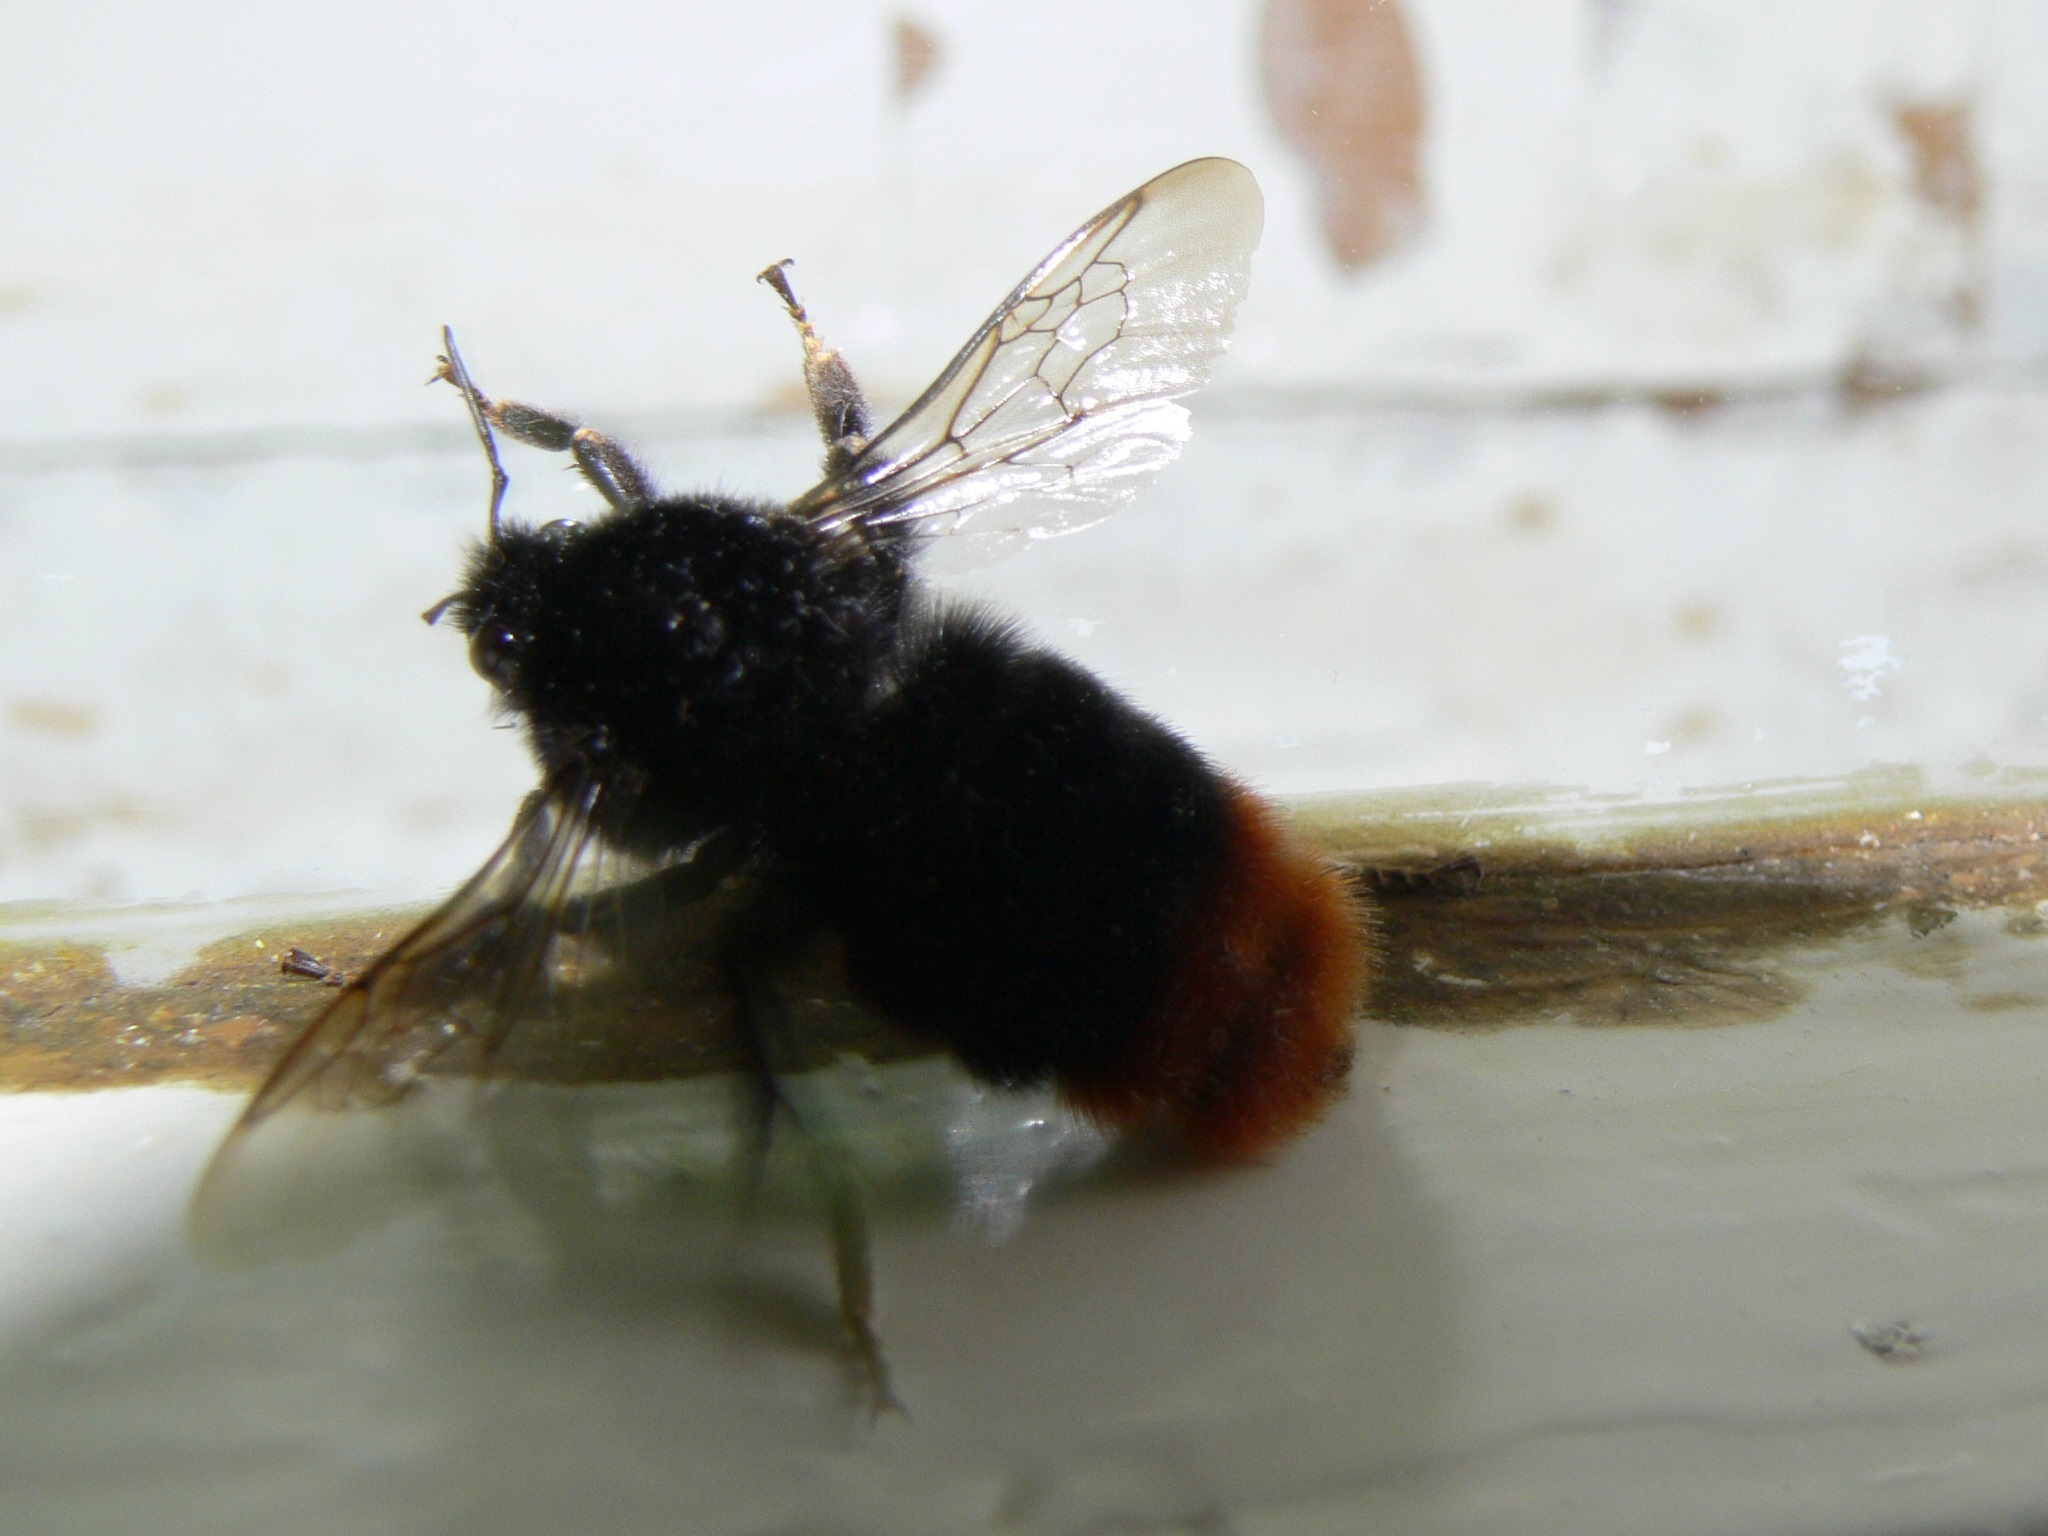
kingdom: Animalia
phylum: Arthropoda
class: Insecta
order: Hymenoptera
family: Apidae
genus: Bombus
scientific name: Bombus lapidarius
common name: Large red-tailed humble-bee
